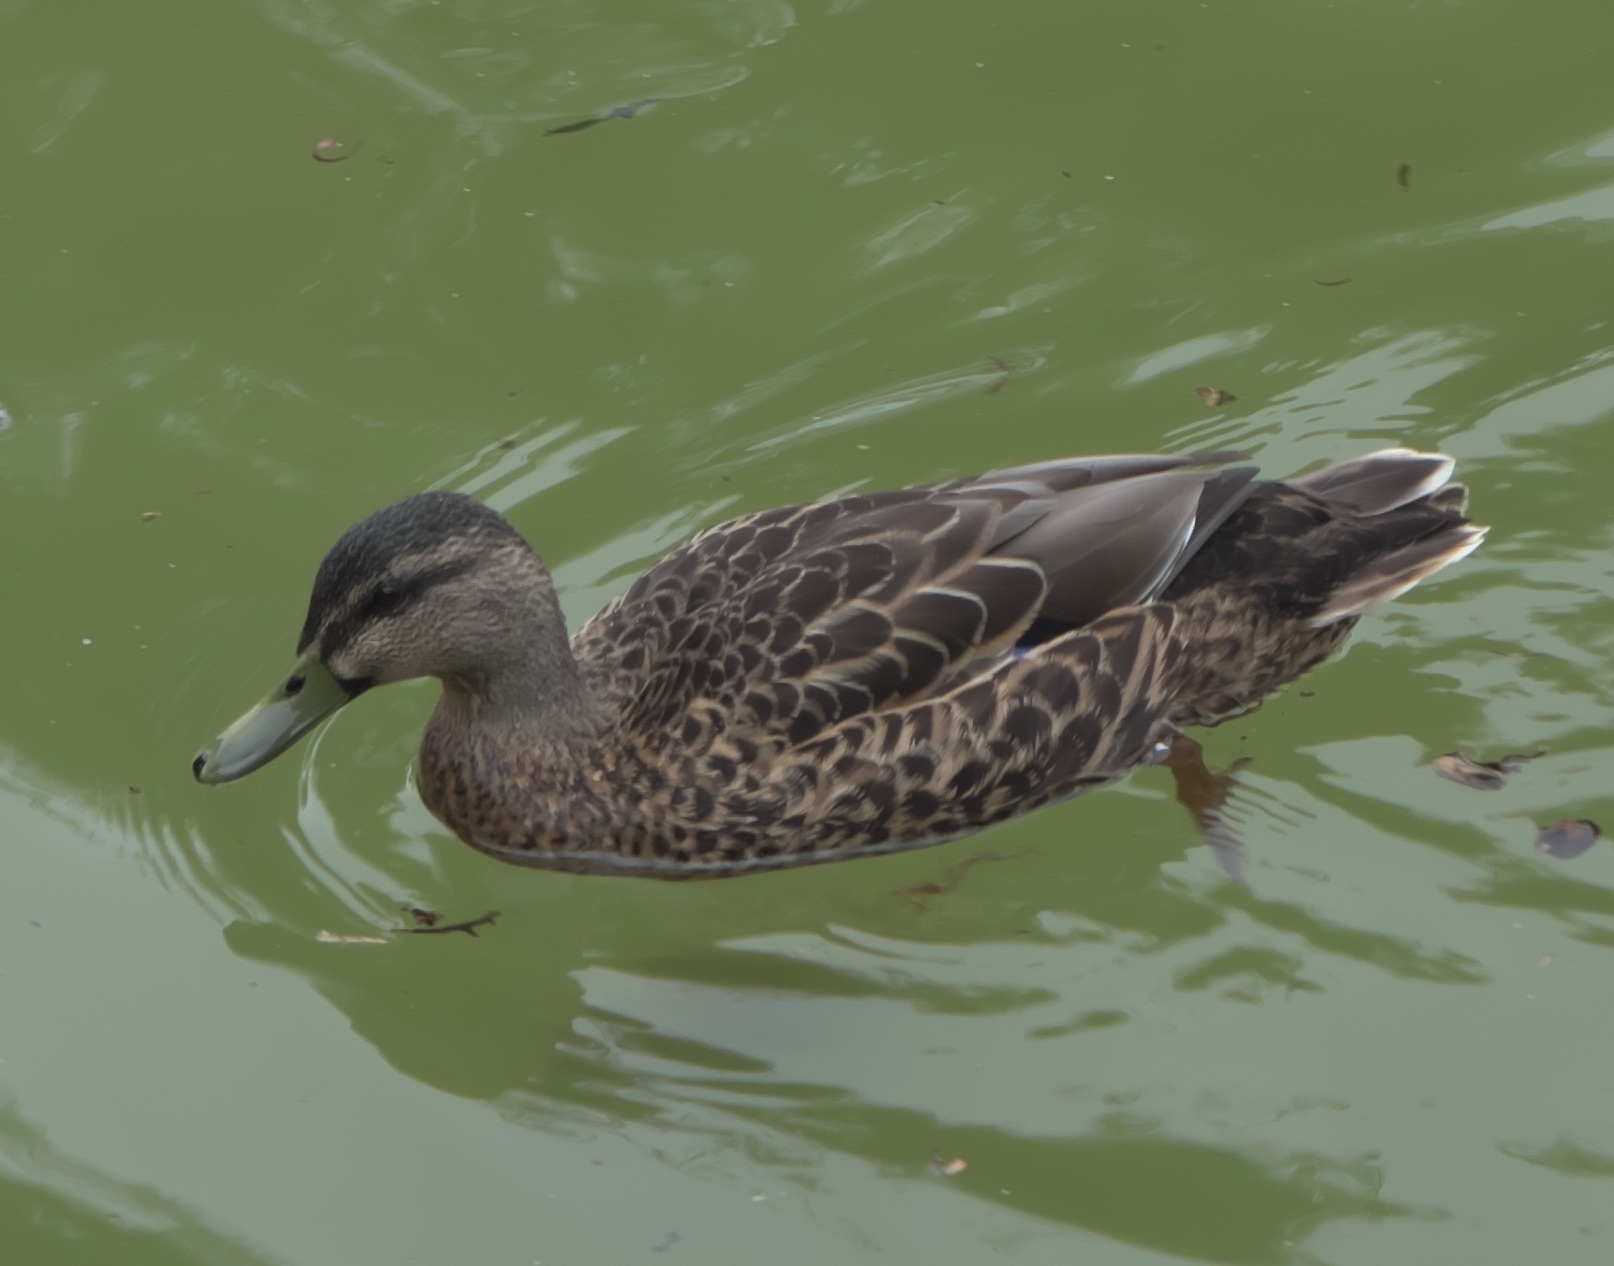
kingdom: Animalia
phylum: Chordata
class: Aves
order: Anseriformes
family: Anatidae
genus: Anas
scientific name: Anas
